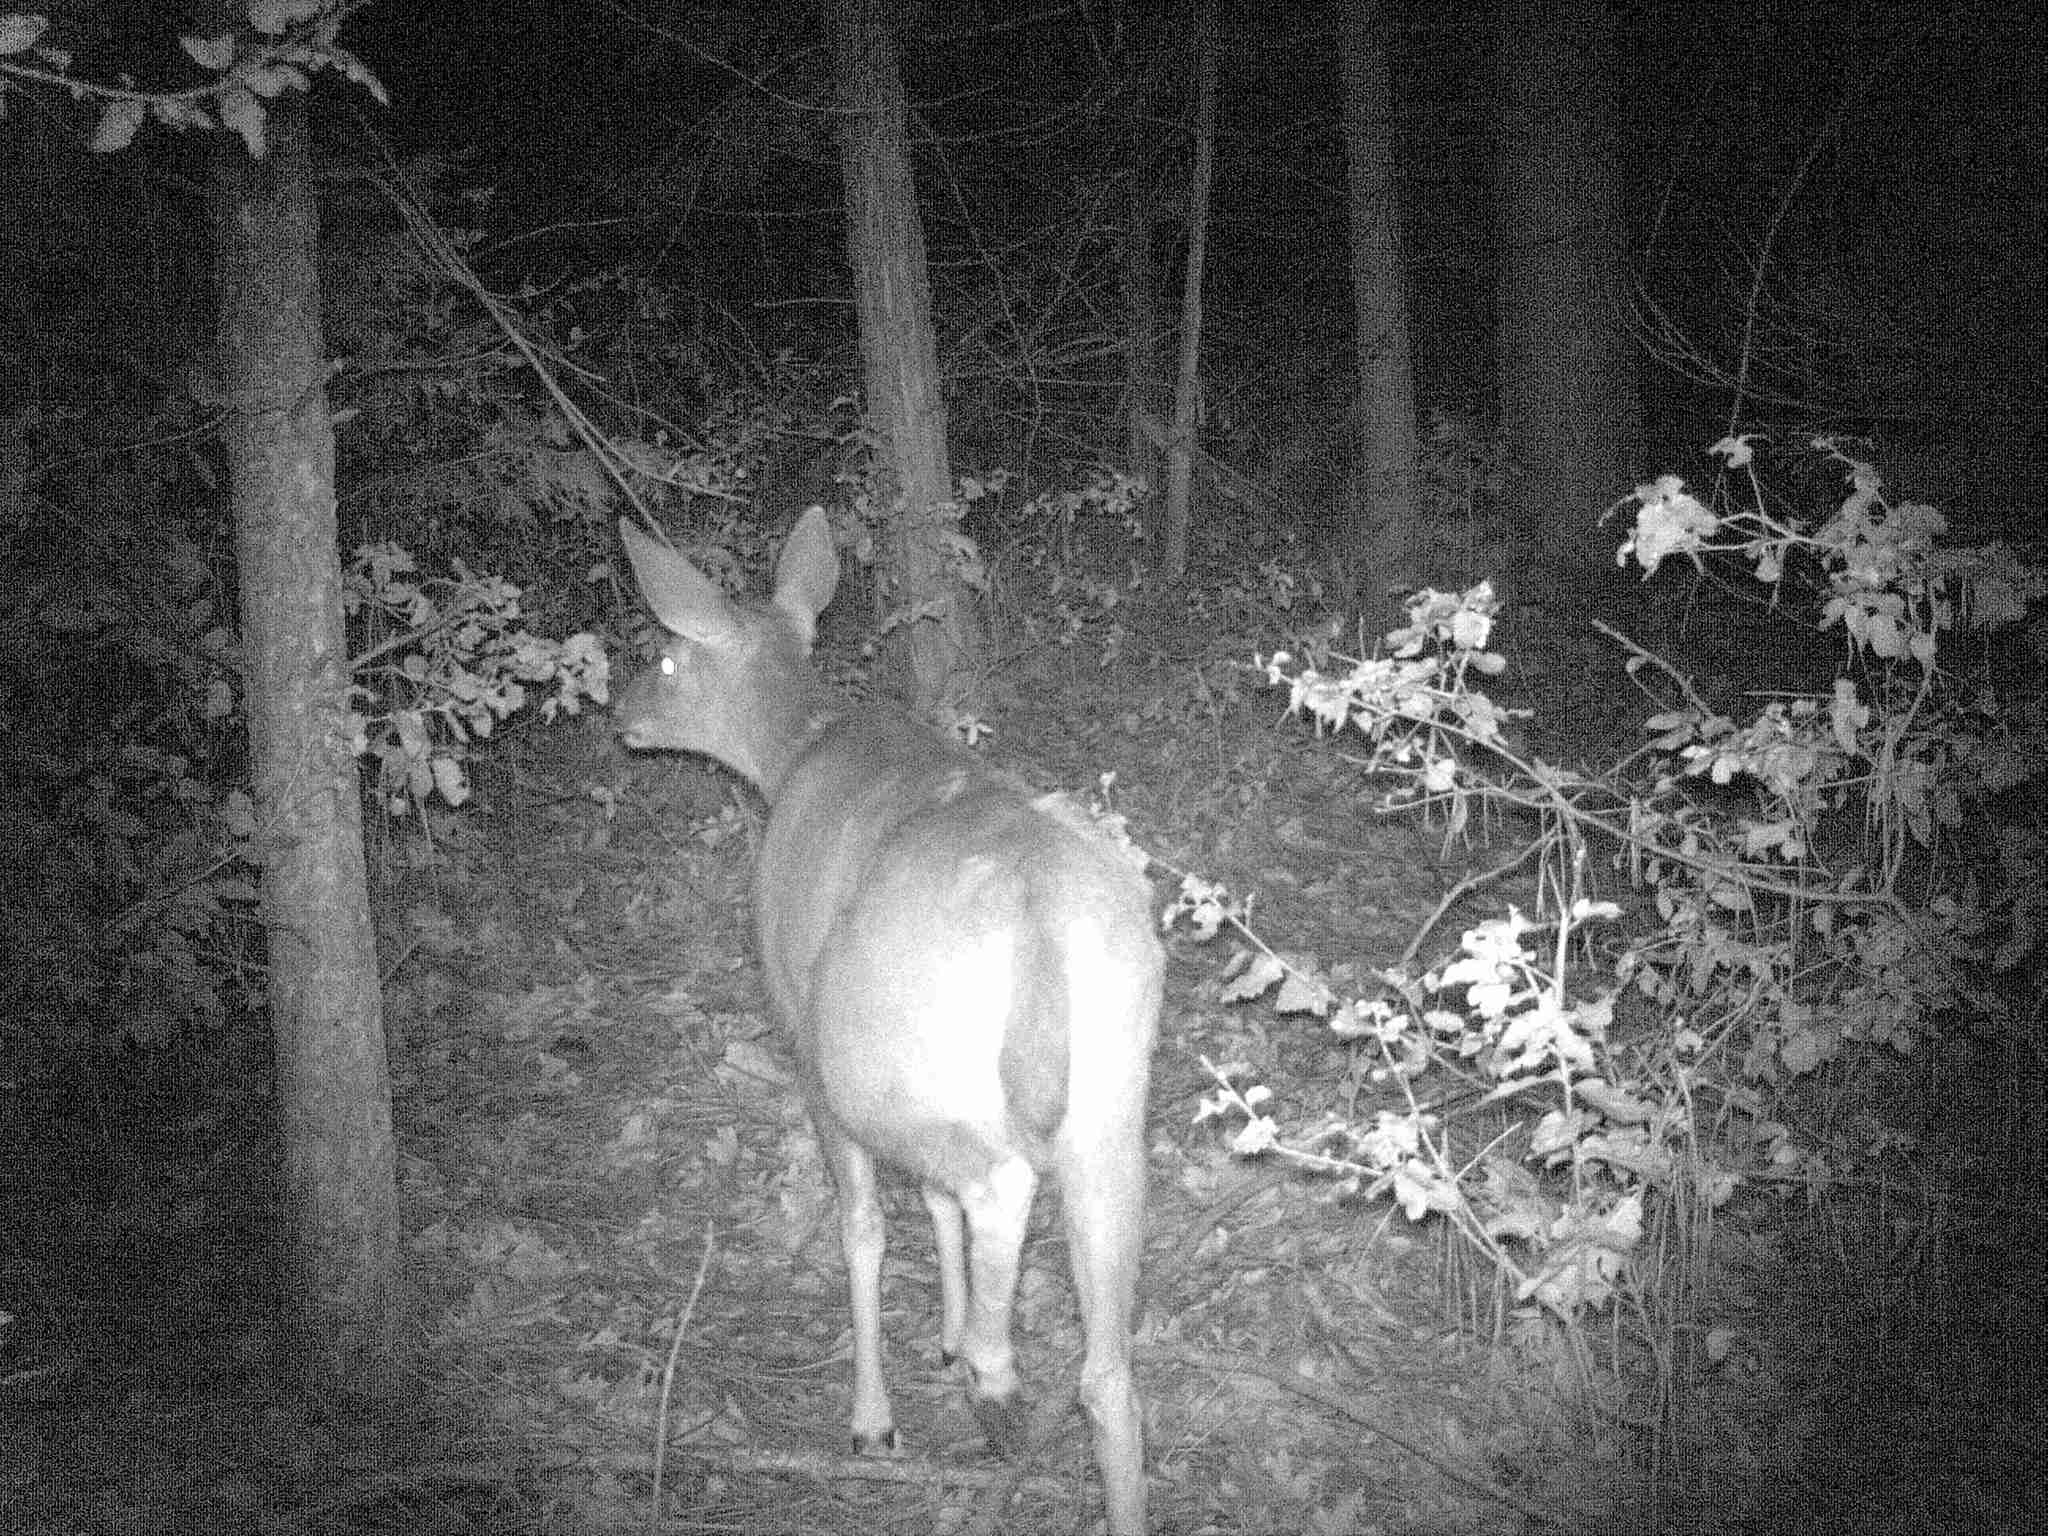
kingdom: Animalia
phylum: Chordata
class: Mammalia
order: Artiodactyla
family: Cervidae
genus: Odocoileus
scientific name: Odocoileus hemionus
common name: Mule deer
